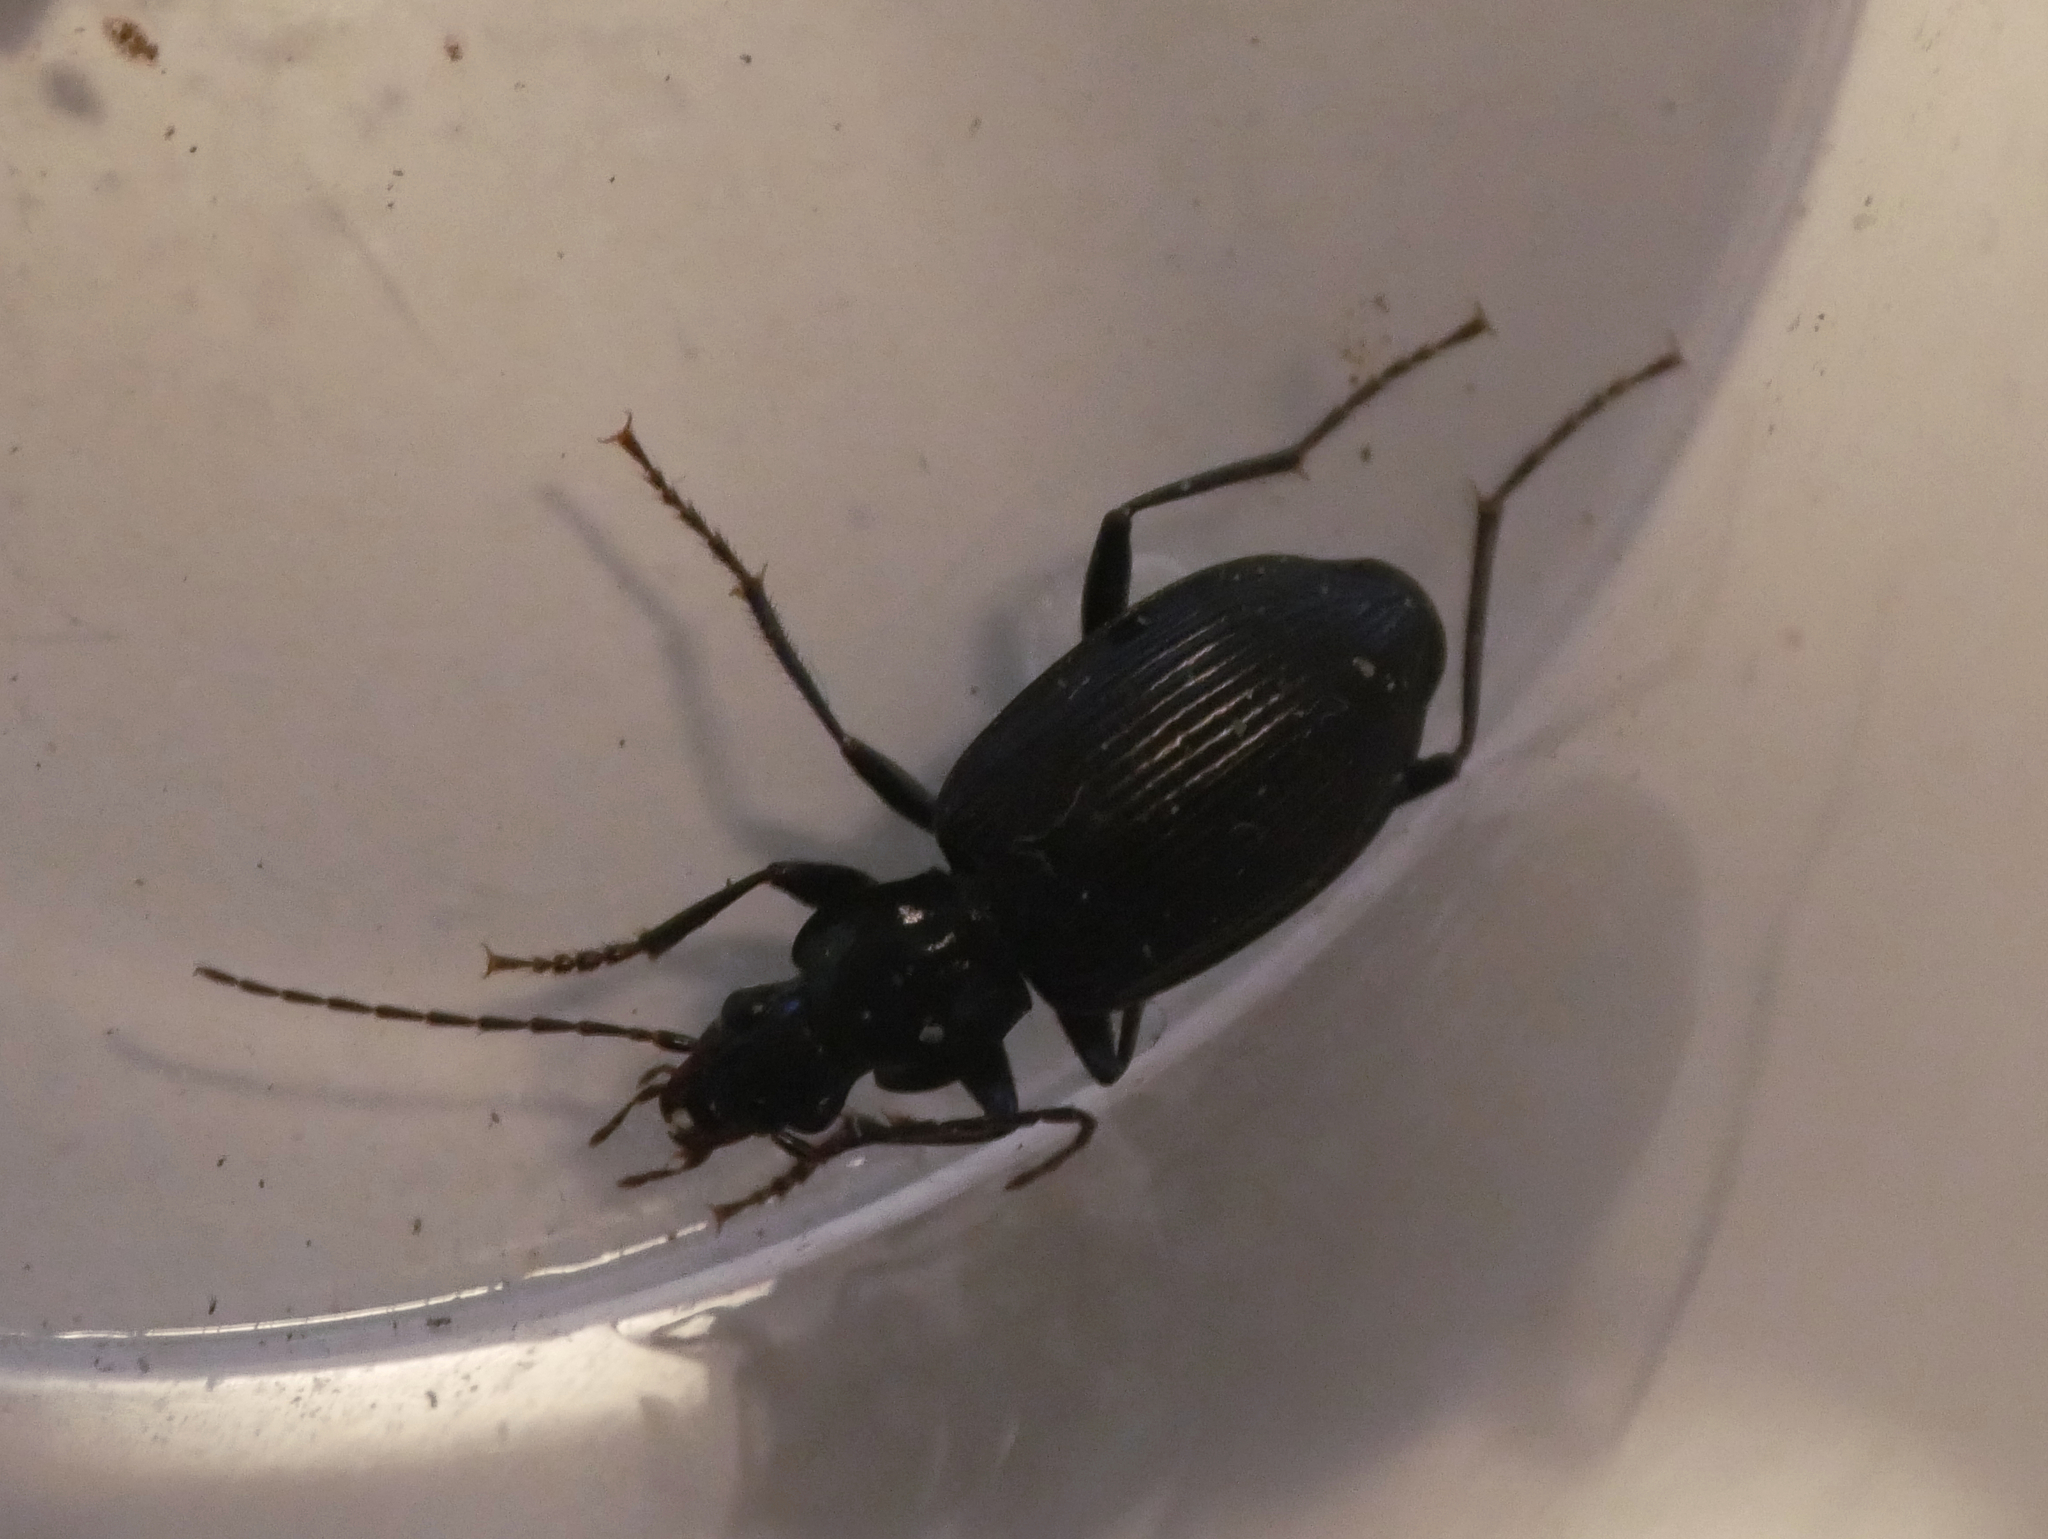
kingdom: Animalia
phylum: Arthropoda
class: Insecta
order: Coleoptera
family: Carabidae
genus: Platynus
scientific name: Platynus assimilis
